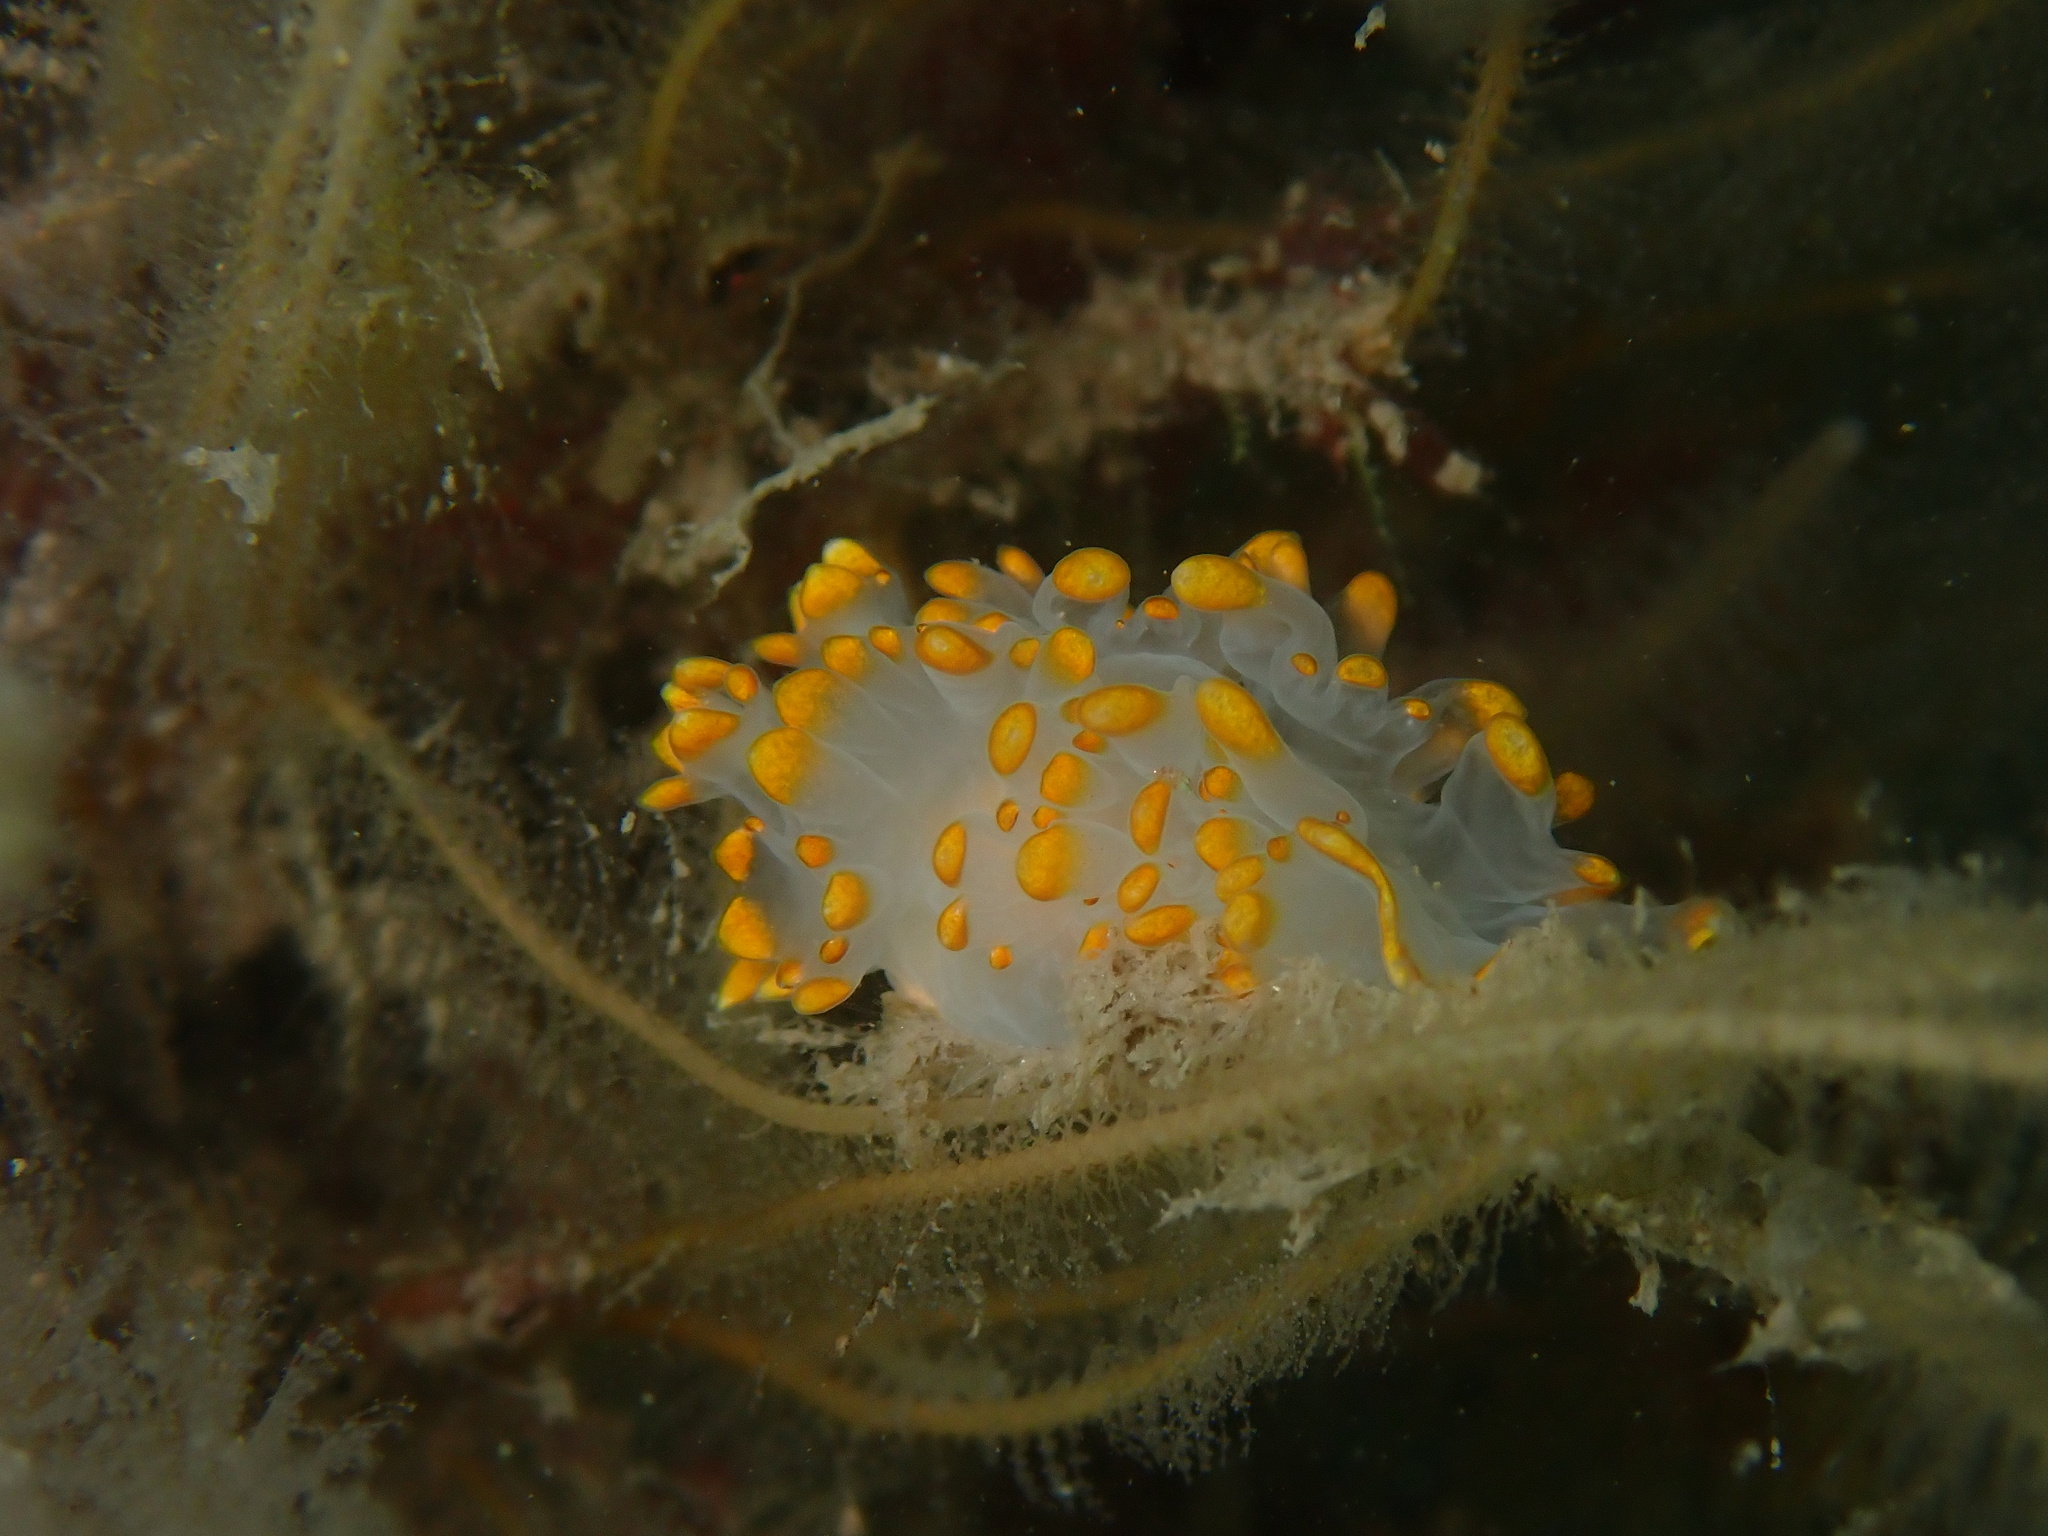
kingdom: Animalia
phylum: Mollusca
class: Gastropoda
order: Nudibranchia
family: Lomanotidae
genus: Lomanotus
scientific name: Lomanotus genei
